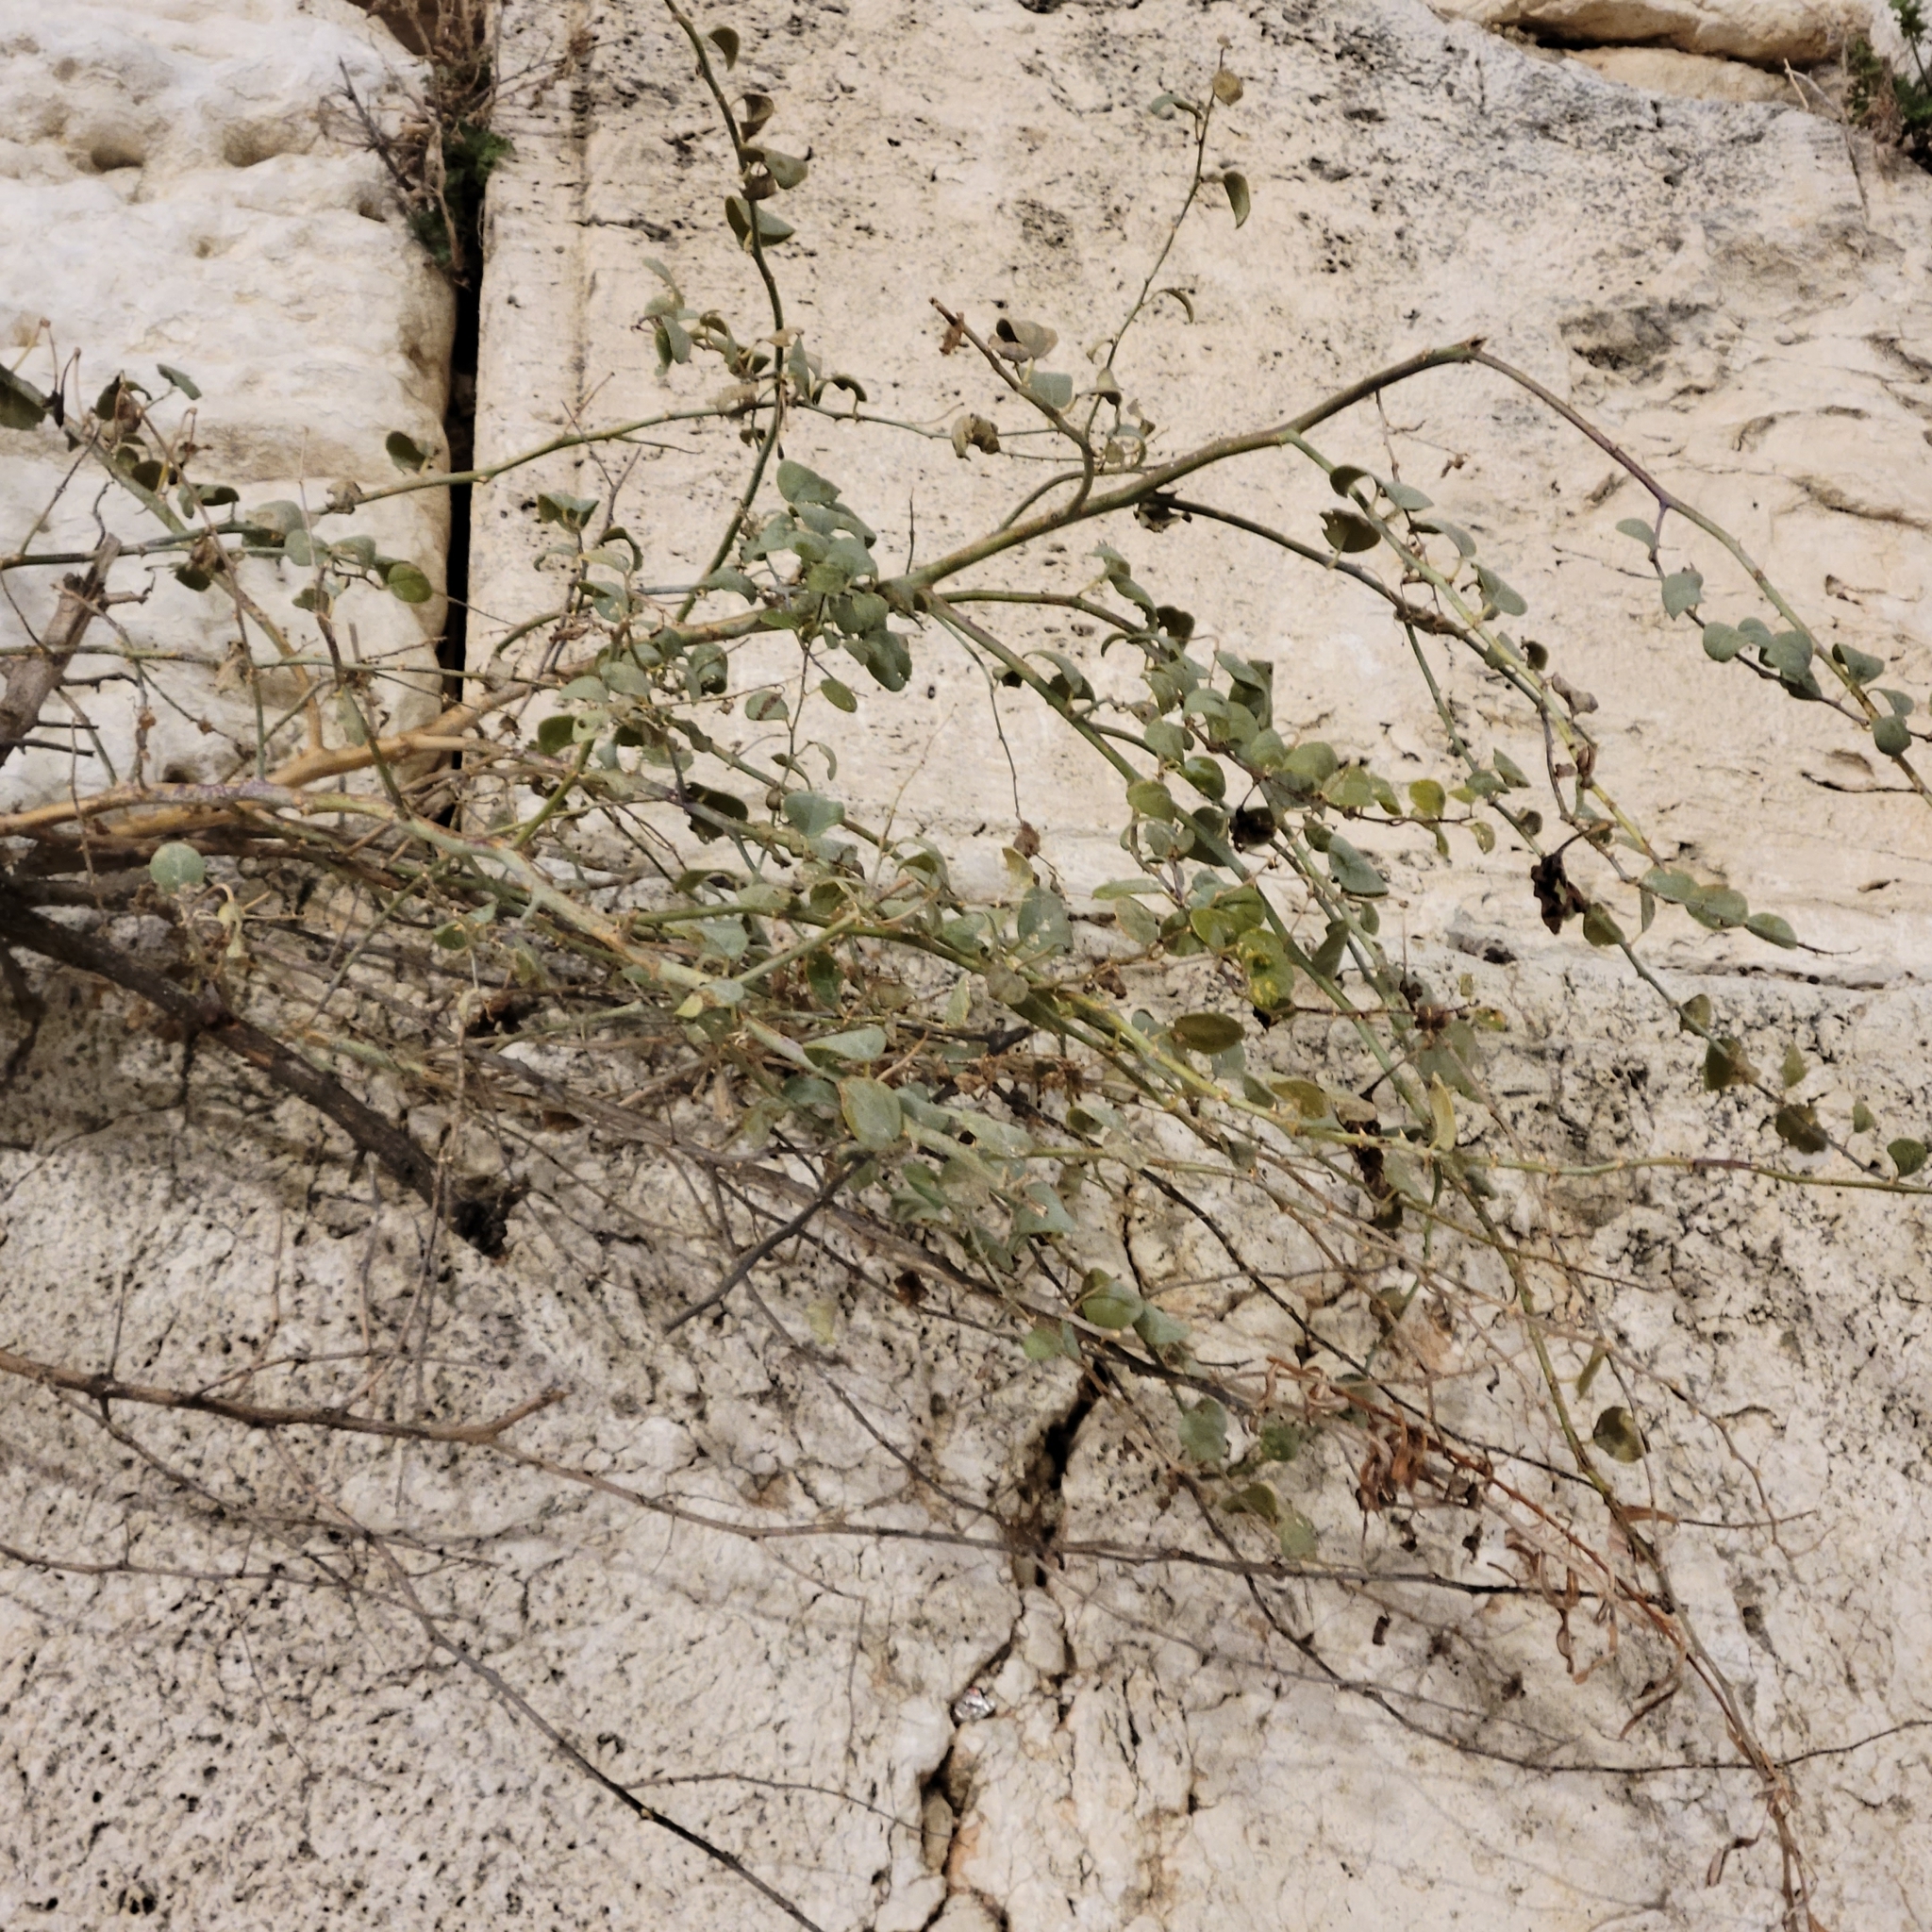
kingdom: Plantae
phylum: Tracheophyta
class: Magnoliopsida
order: Brassicales
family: Capparaceae
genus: Capparis
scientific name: Capparis spinosa
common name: Caper
